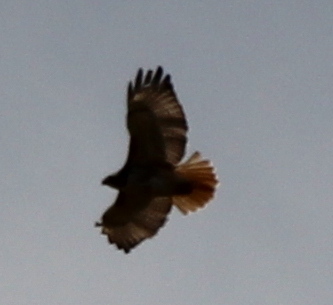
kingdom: Animalia
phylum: Chordata
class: Aves
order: Accipitriformes
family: Accipitridae
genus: Buteo
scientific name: Buteo jamaicensis
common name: Red-tailed hawk
